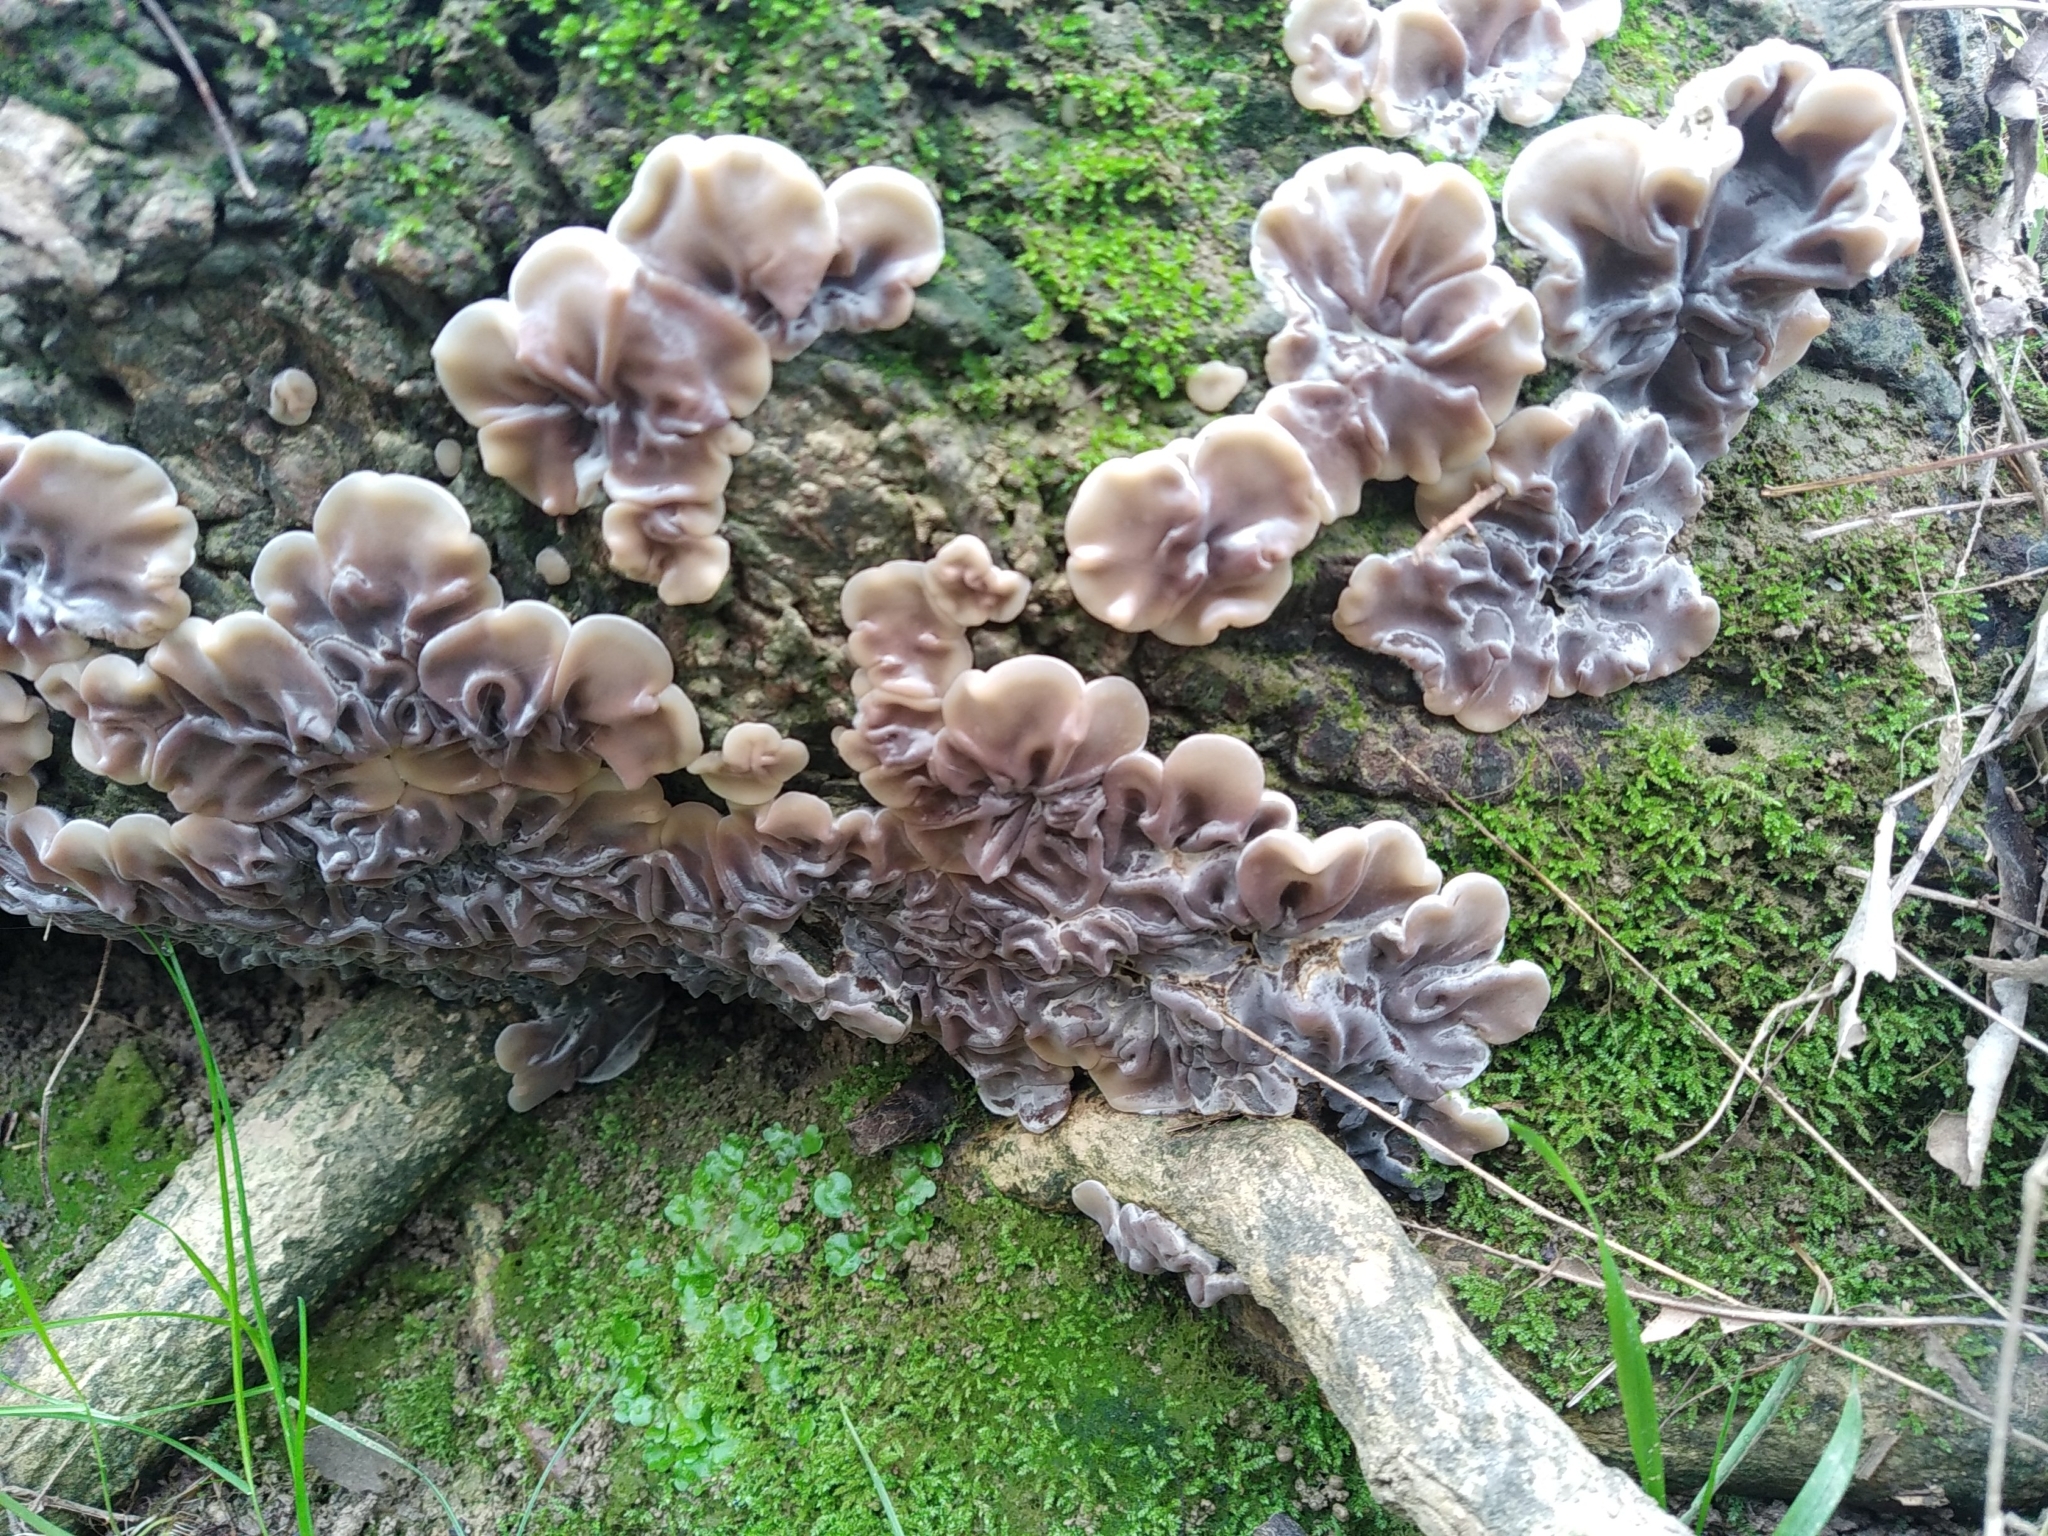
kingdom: Fungi
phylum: Basidiomycota
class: Agaricomycetes
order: Auriculariales
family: Auriculariaceae
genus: Auricularia
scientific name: Auricularia mesenterica
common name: Tripe fungus
